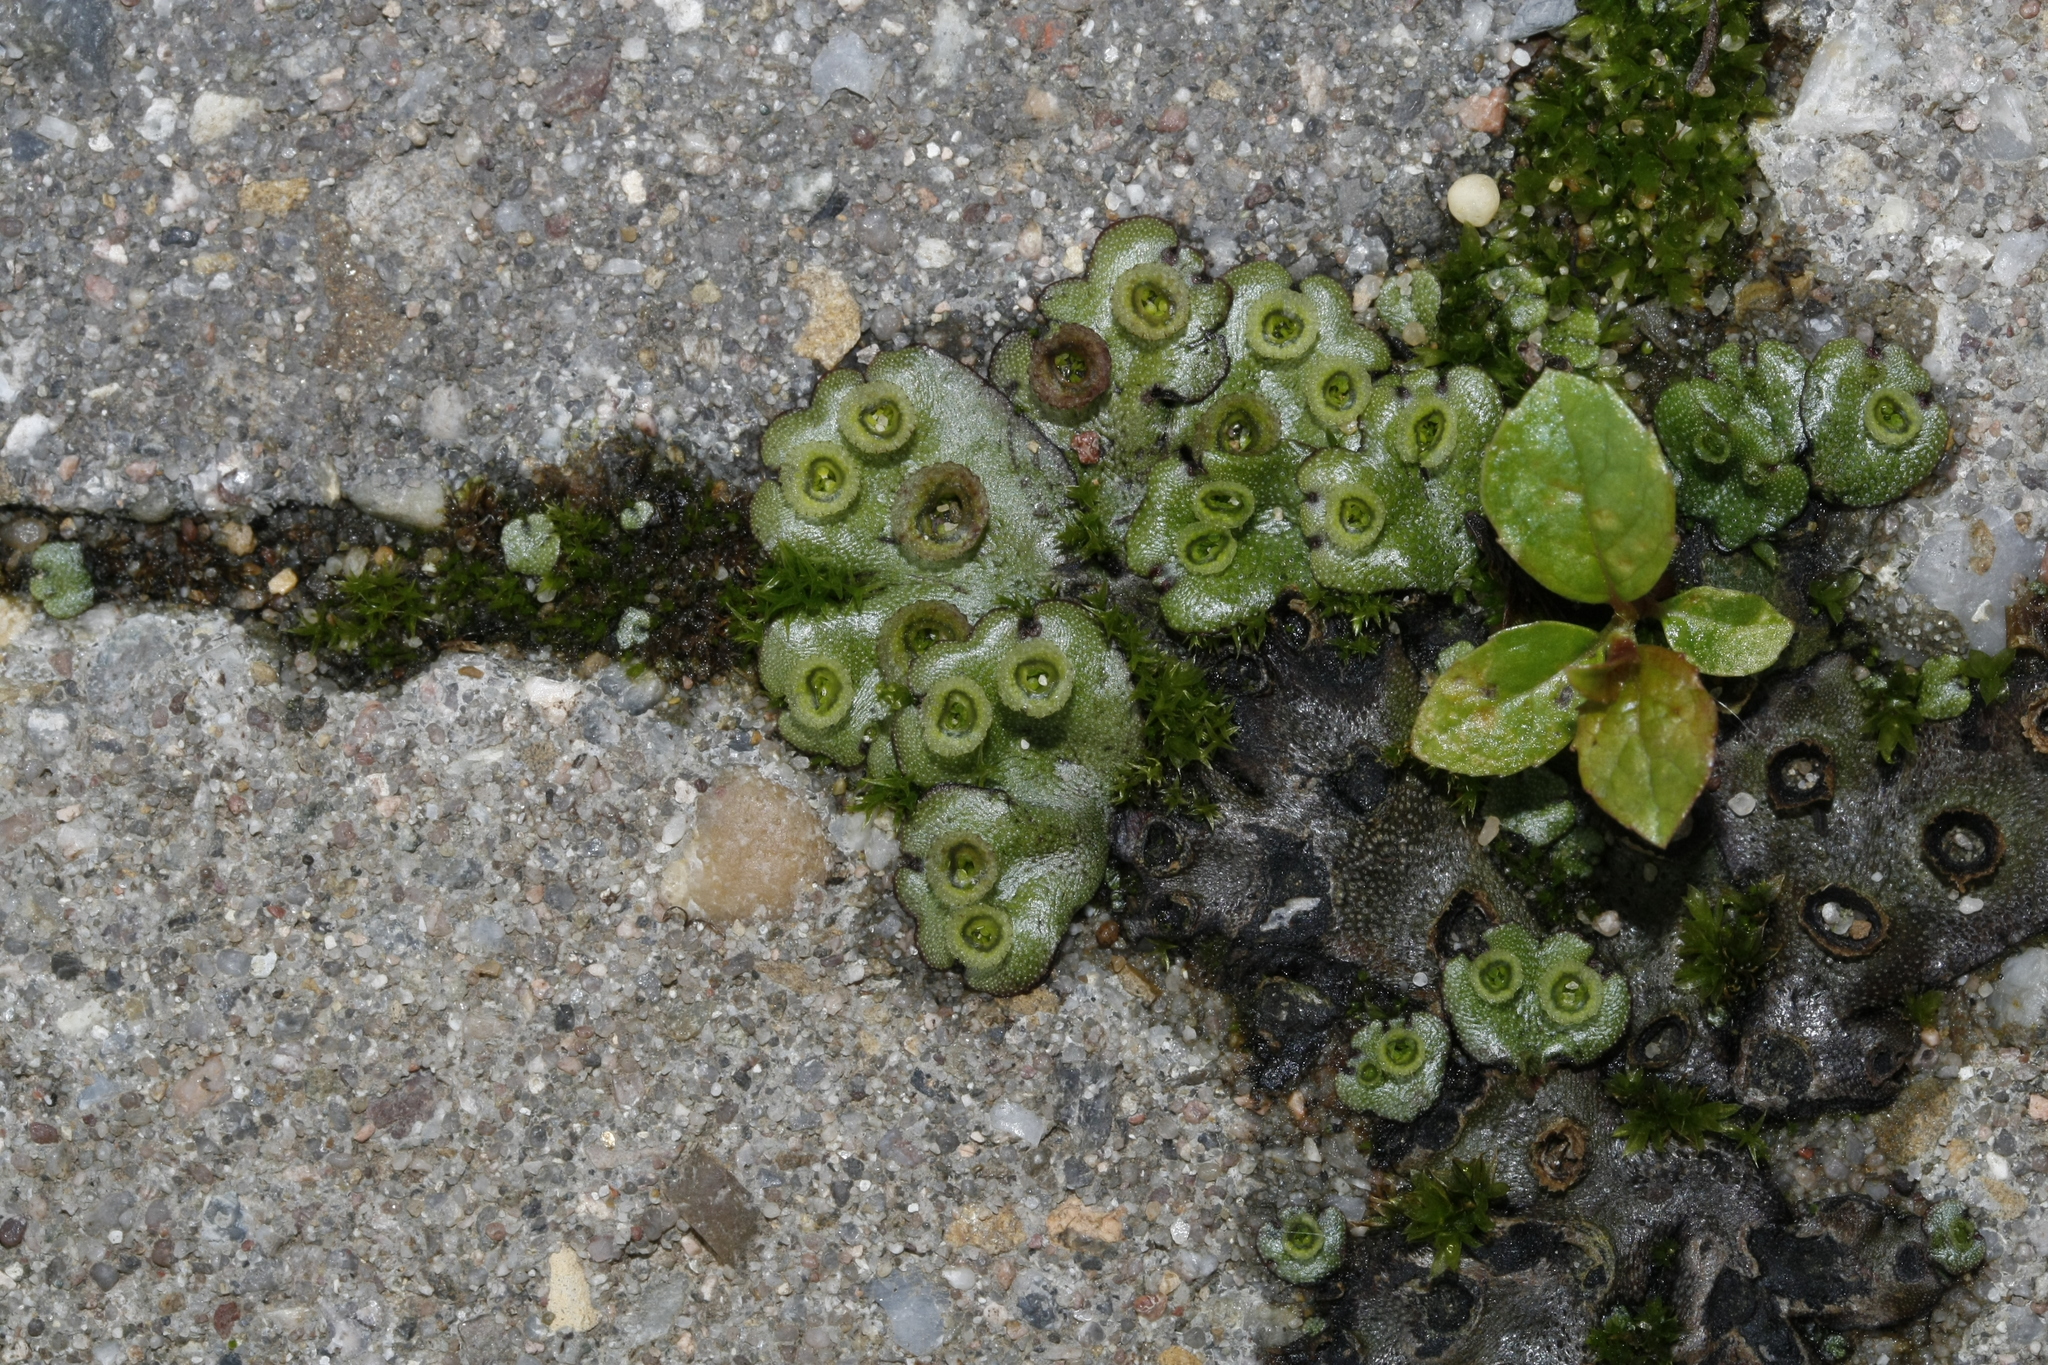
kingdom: Plantae
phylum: Marchantiophyta
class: Marchantiopsida
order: Marchantiales
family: Marchantiaceae
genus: Marchantia
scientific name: Marchantia polymorpha
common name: Common liverwort
